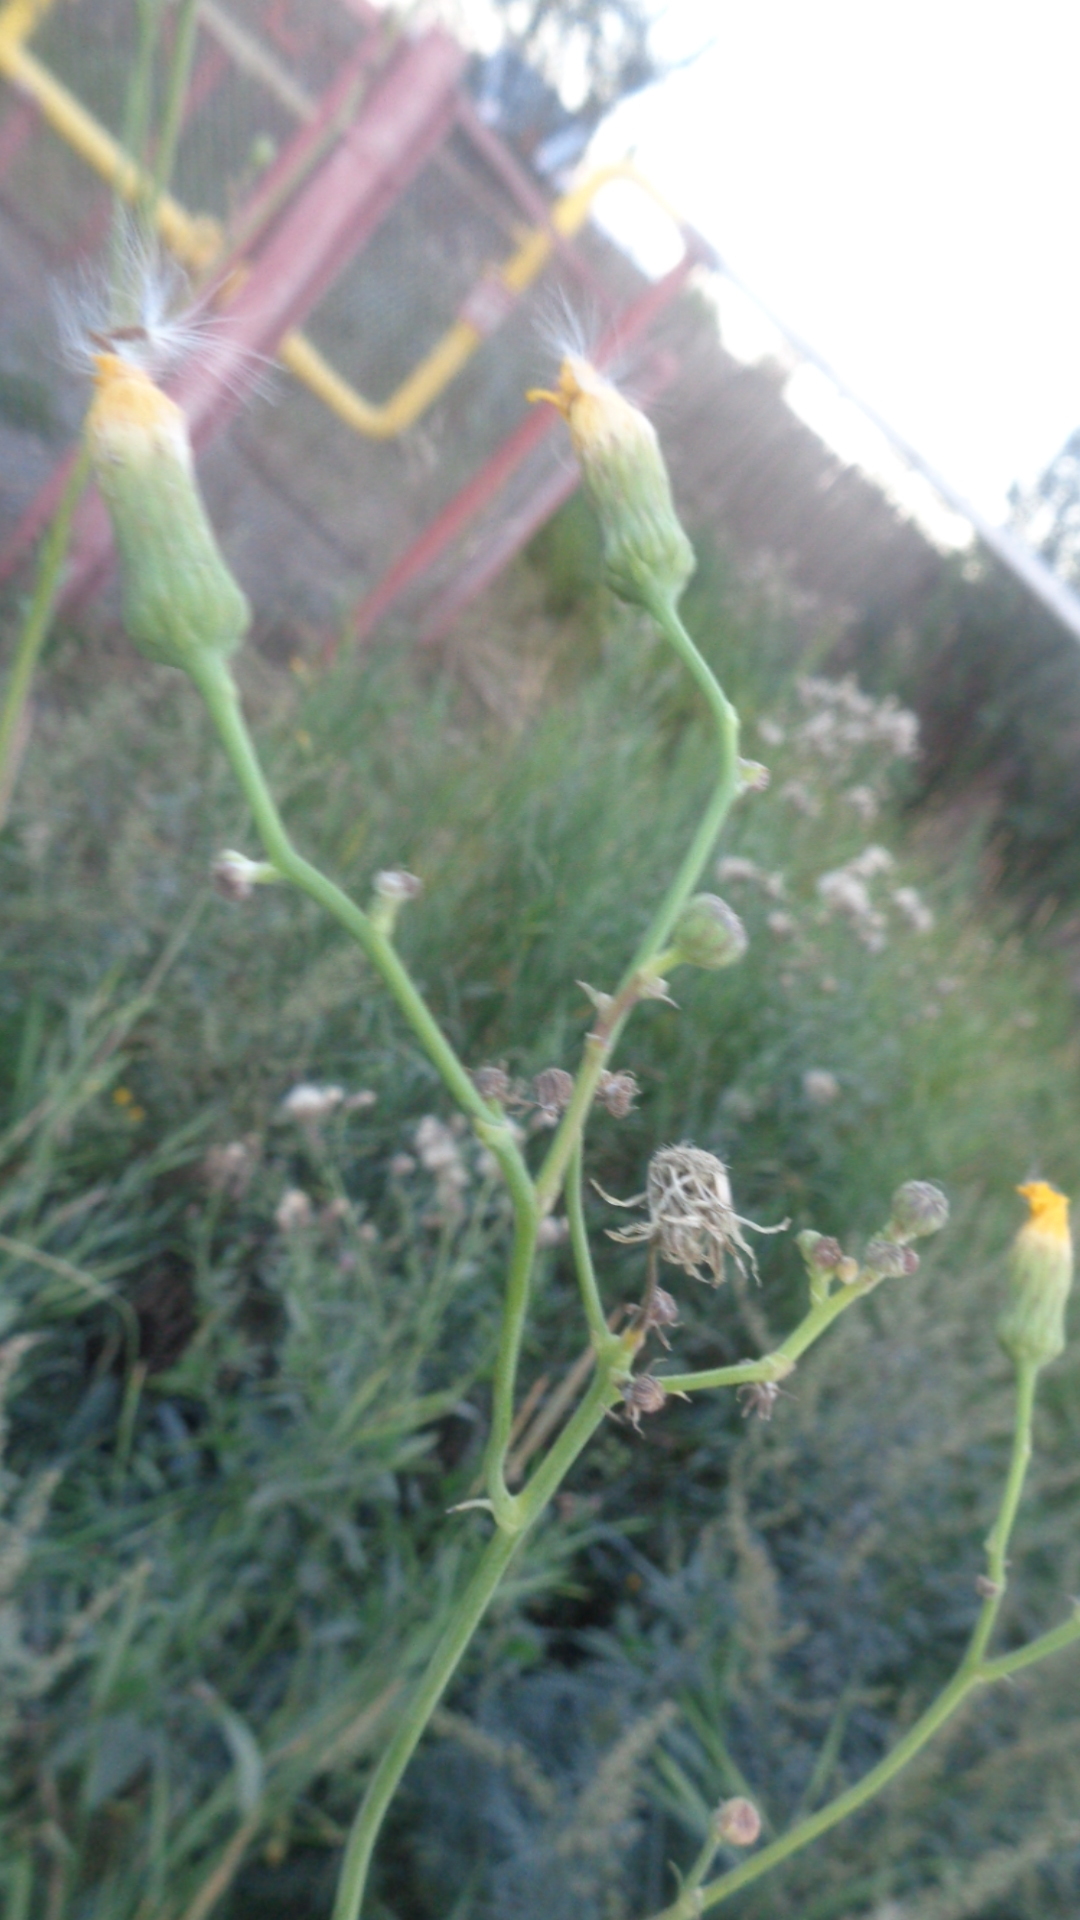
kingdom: Plantae
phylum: Tracheophyta
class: Magnoliopsida
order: Asterales
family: Asteraceae
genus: Sonchus
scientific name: Sonchus arvensis
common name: Perennial sow-thistle
